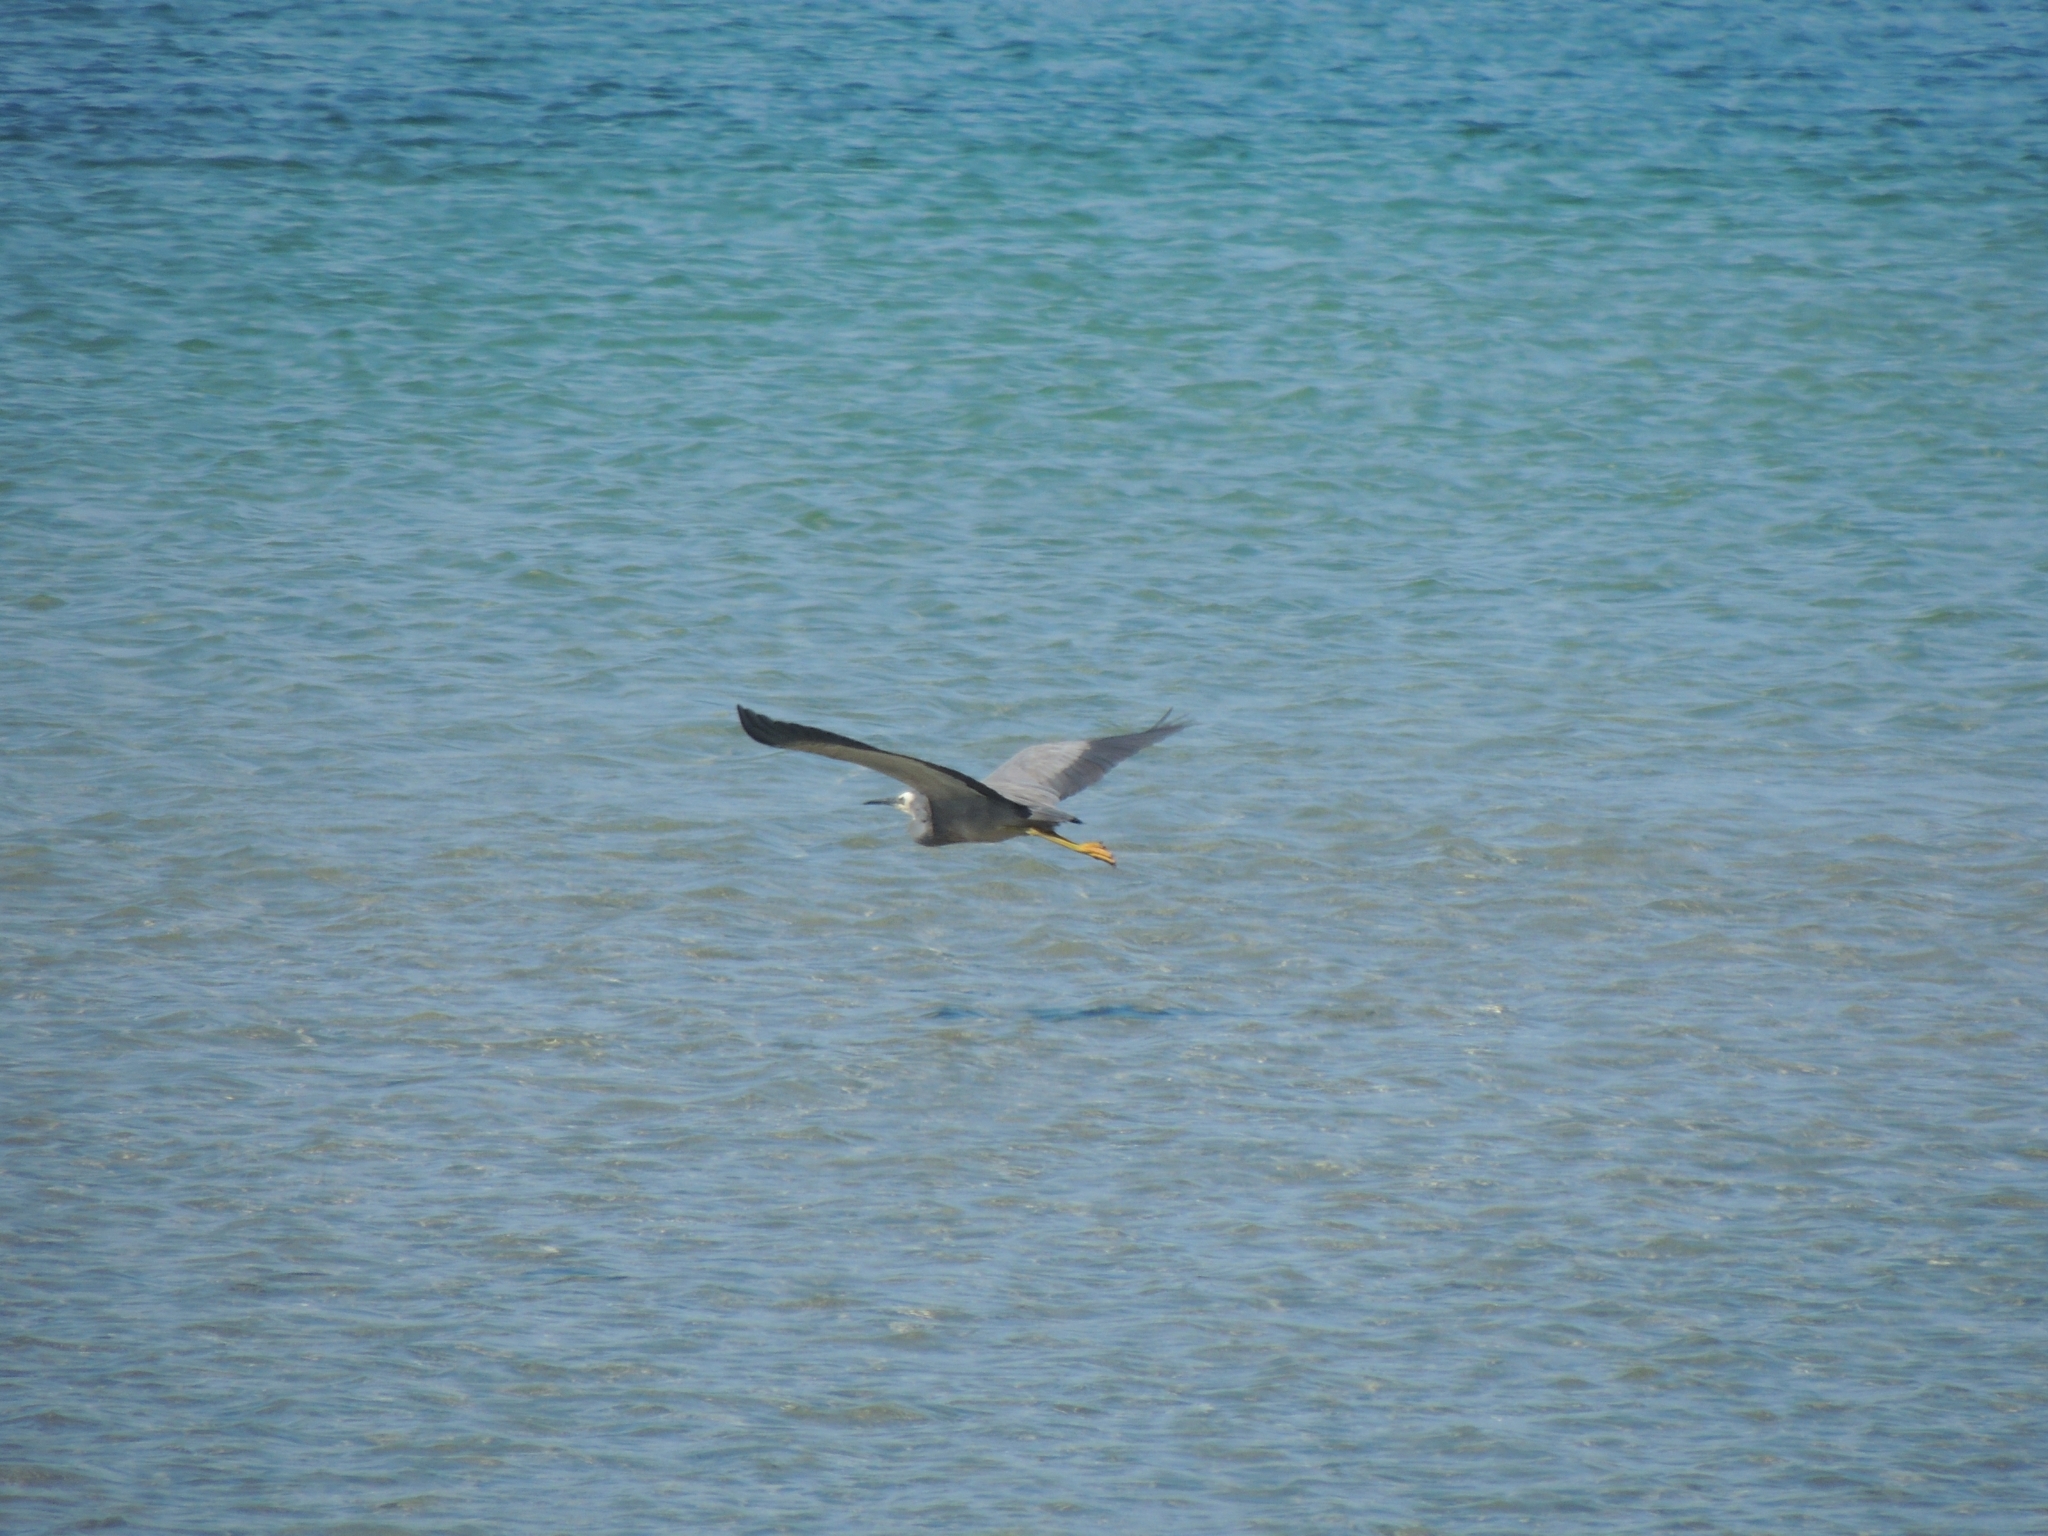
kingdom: Animalia
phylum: Chordata
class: Aves
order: Pelecaniformes
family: Ardeidae
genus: Egretta
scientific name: Egretta novaehollandiae
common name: White-faced heron
